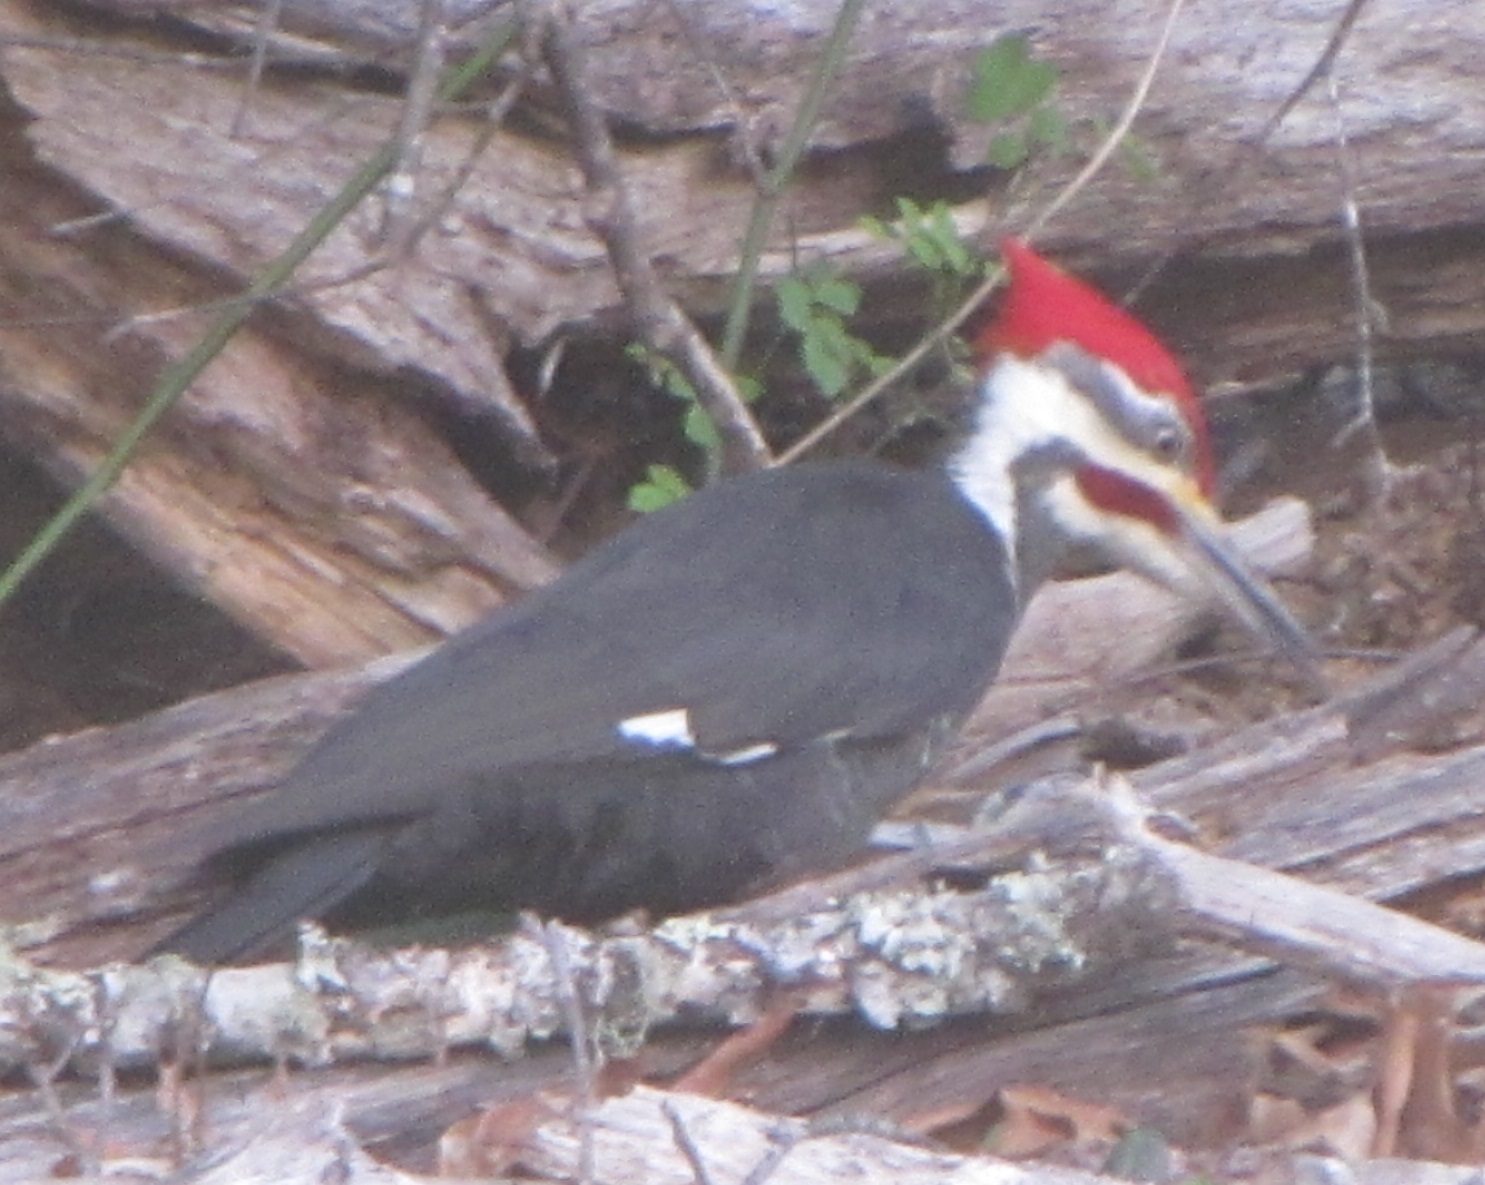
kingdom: Animalia
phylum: Chordata
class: Aves
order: Piciformes
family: Picidae
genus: Dryocopus
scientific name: Dryocopus pileatus
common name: Pileated woodpecker
